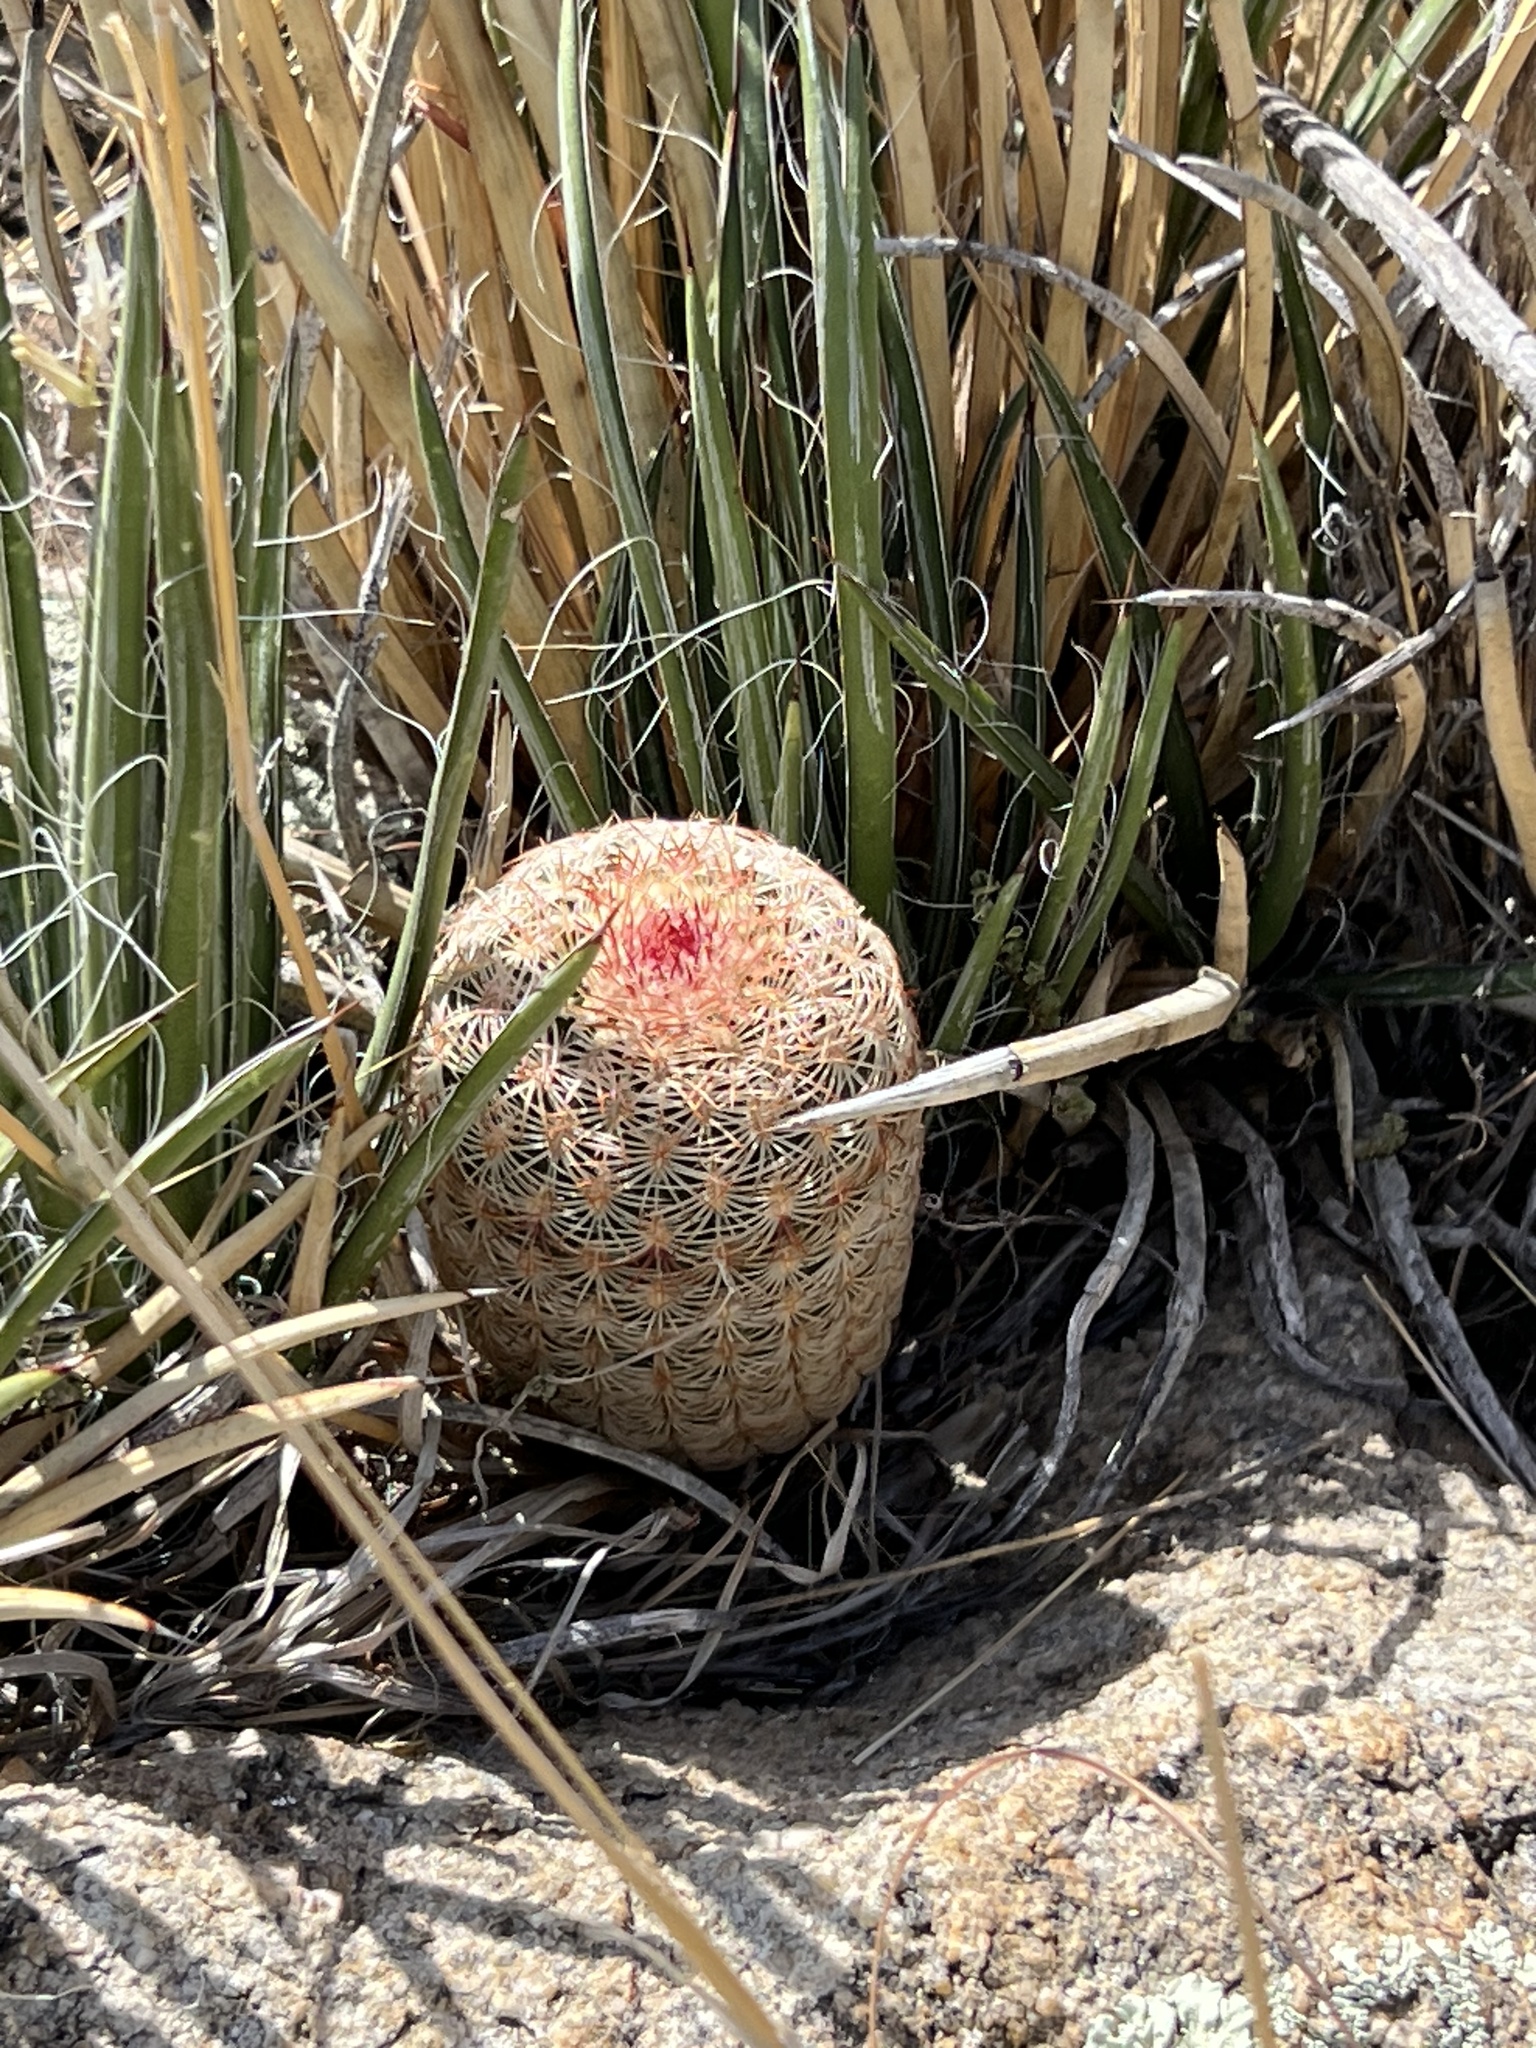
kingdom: Plantae
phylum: Tracheophyta
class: Magnoliopsida
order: Caryophyllales
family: Cactaceae
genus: Echinocereus
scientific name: Echinocereus rigidissimus
